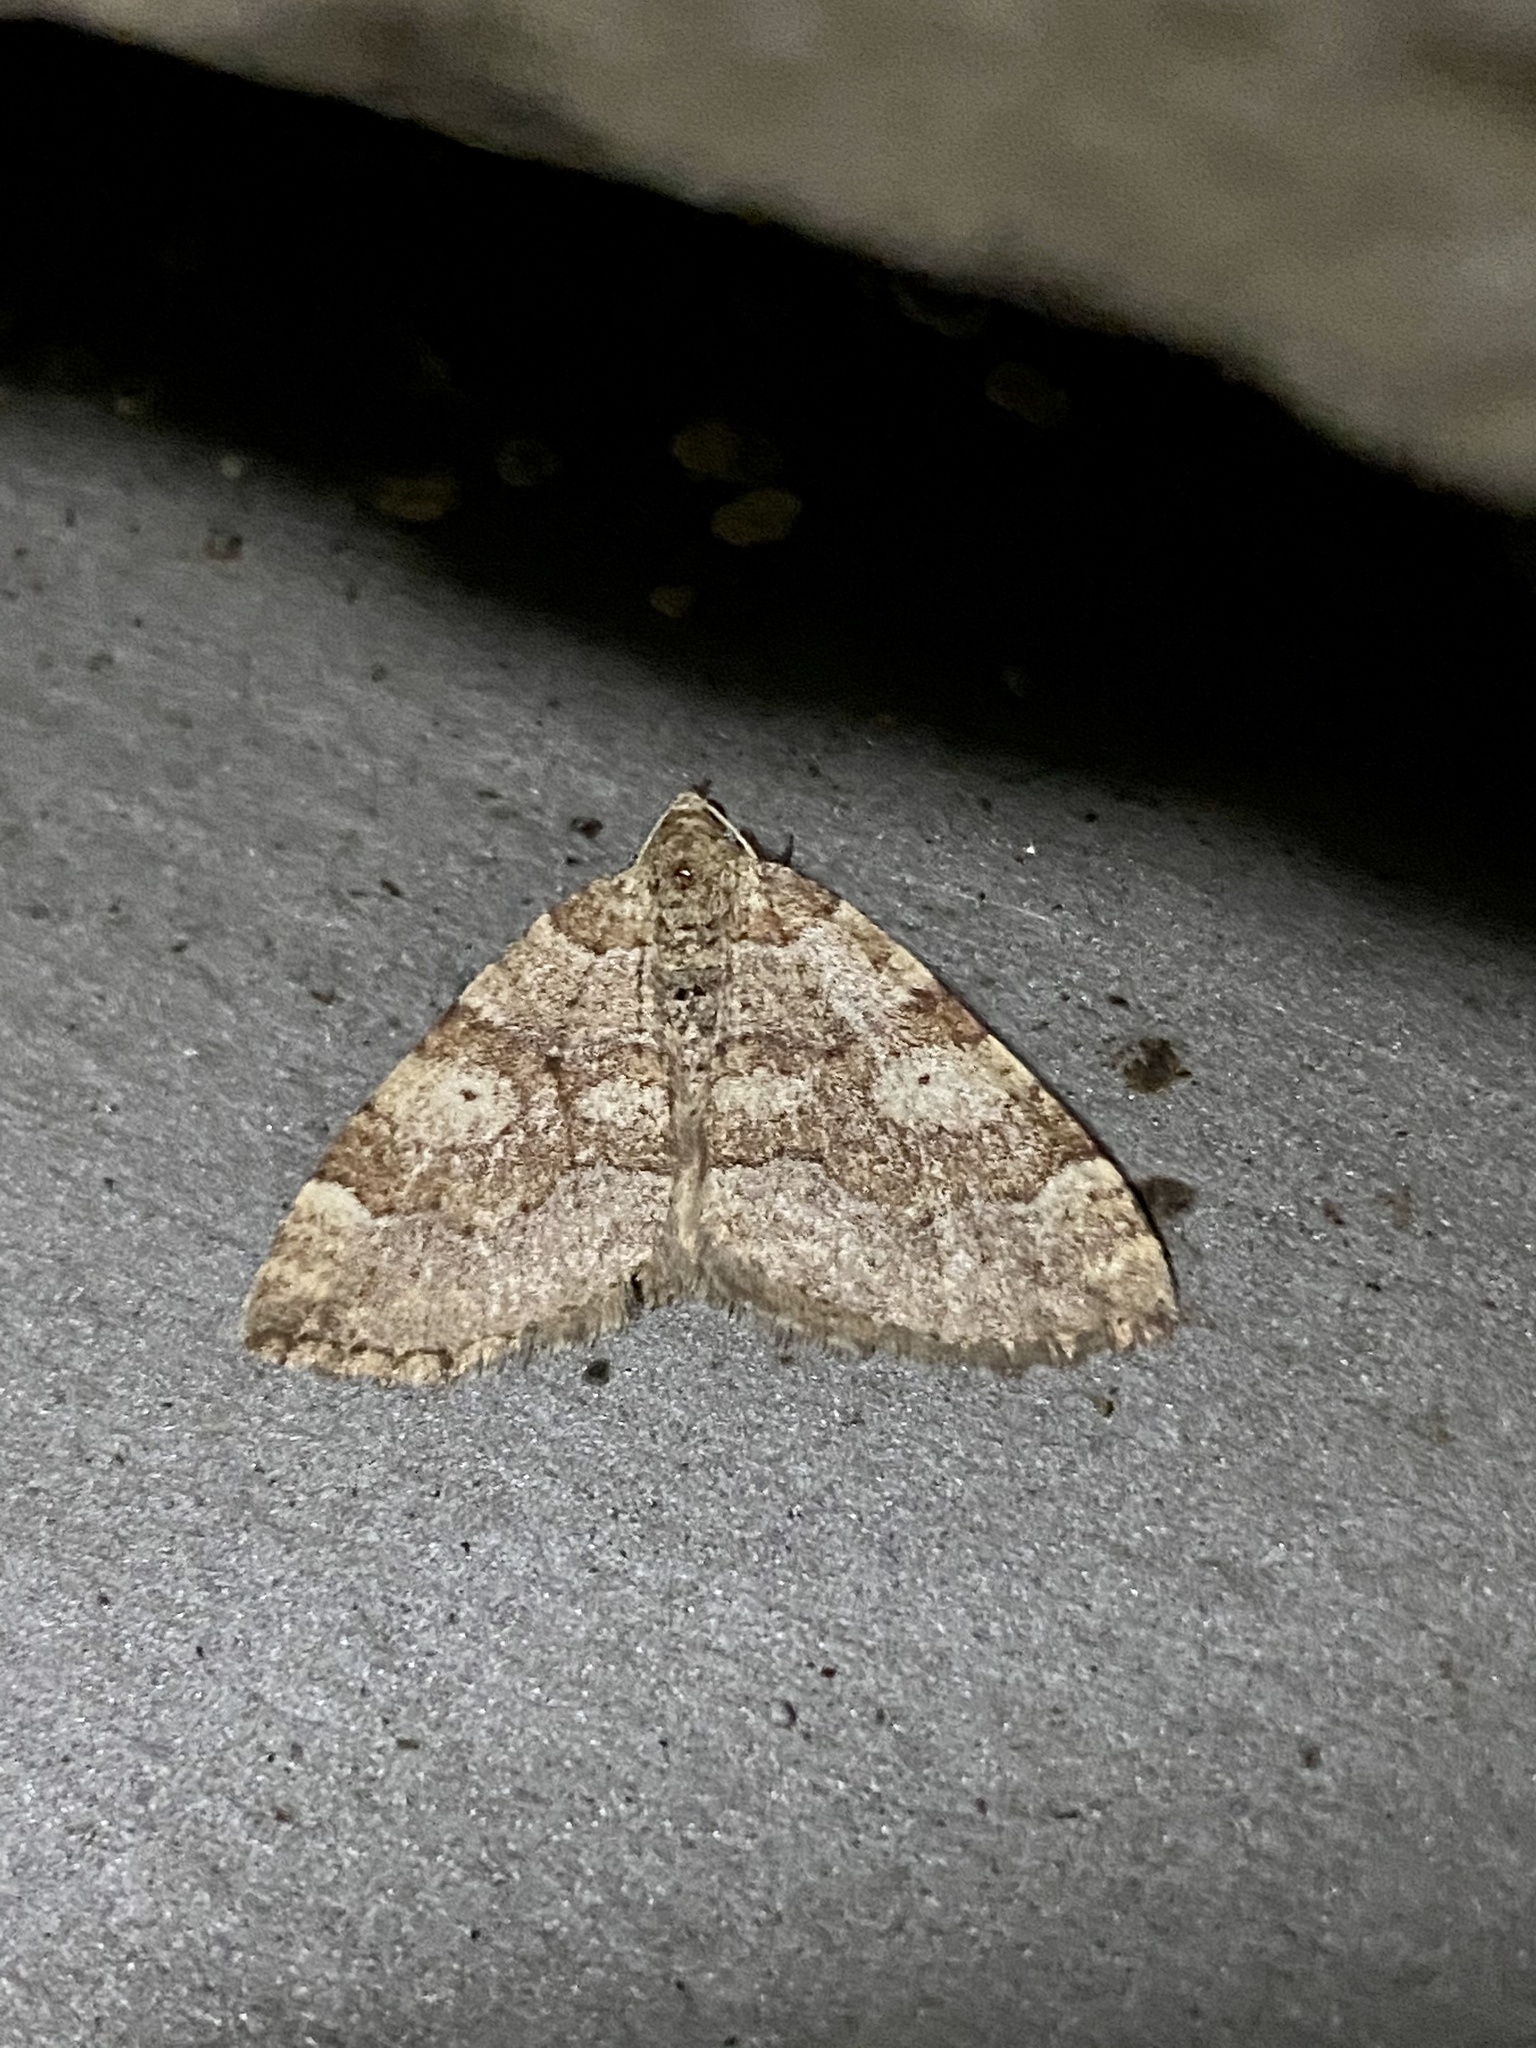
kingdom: Animalia
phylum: Arthropoda
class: Insecta
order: Lepidoptera
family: Geometridae
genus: Idiotephria
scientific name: Idiotephria evanescens
